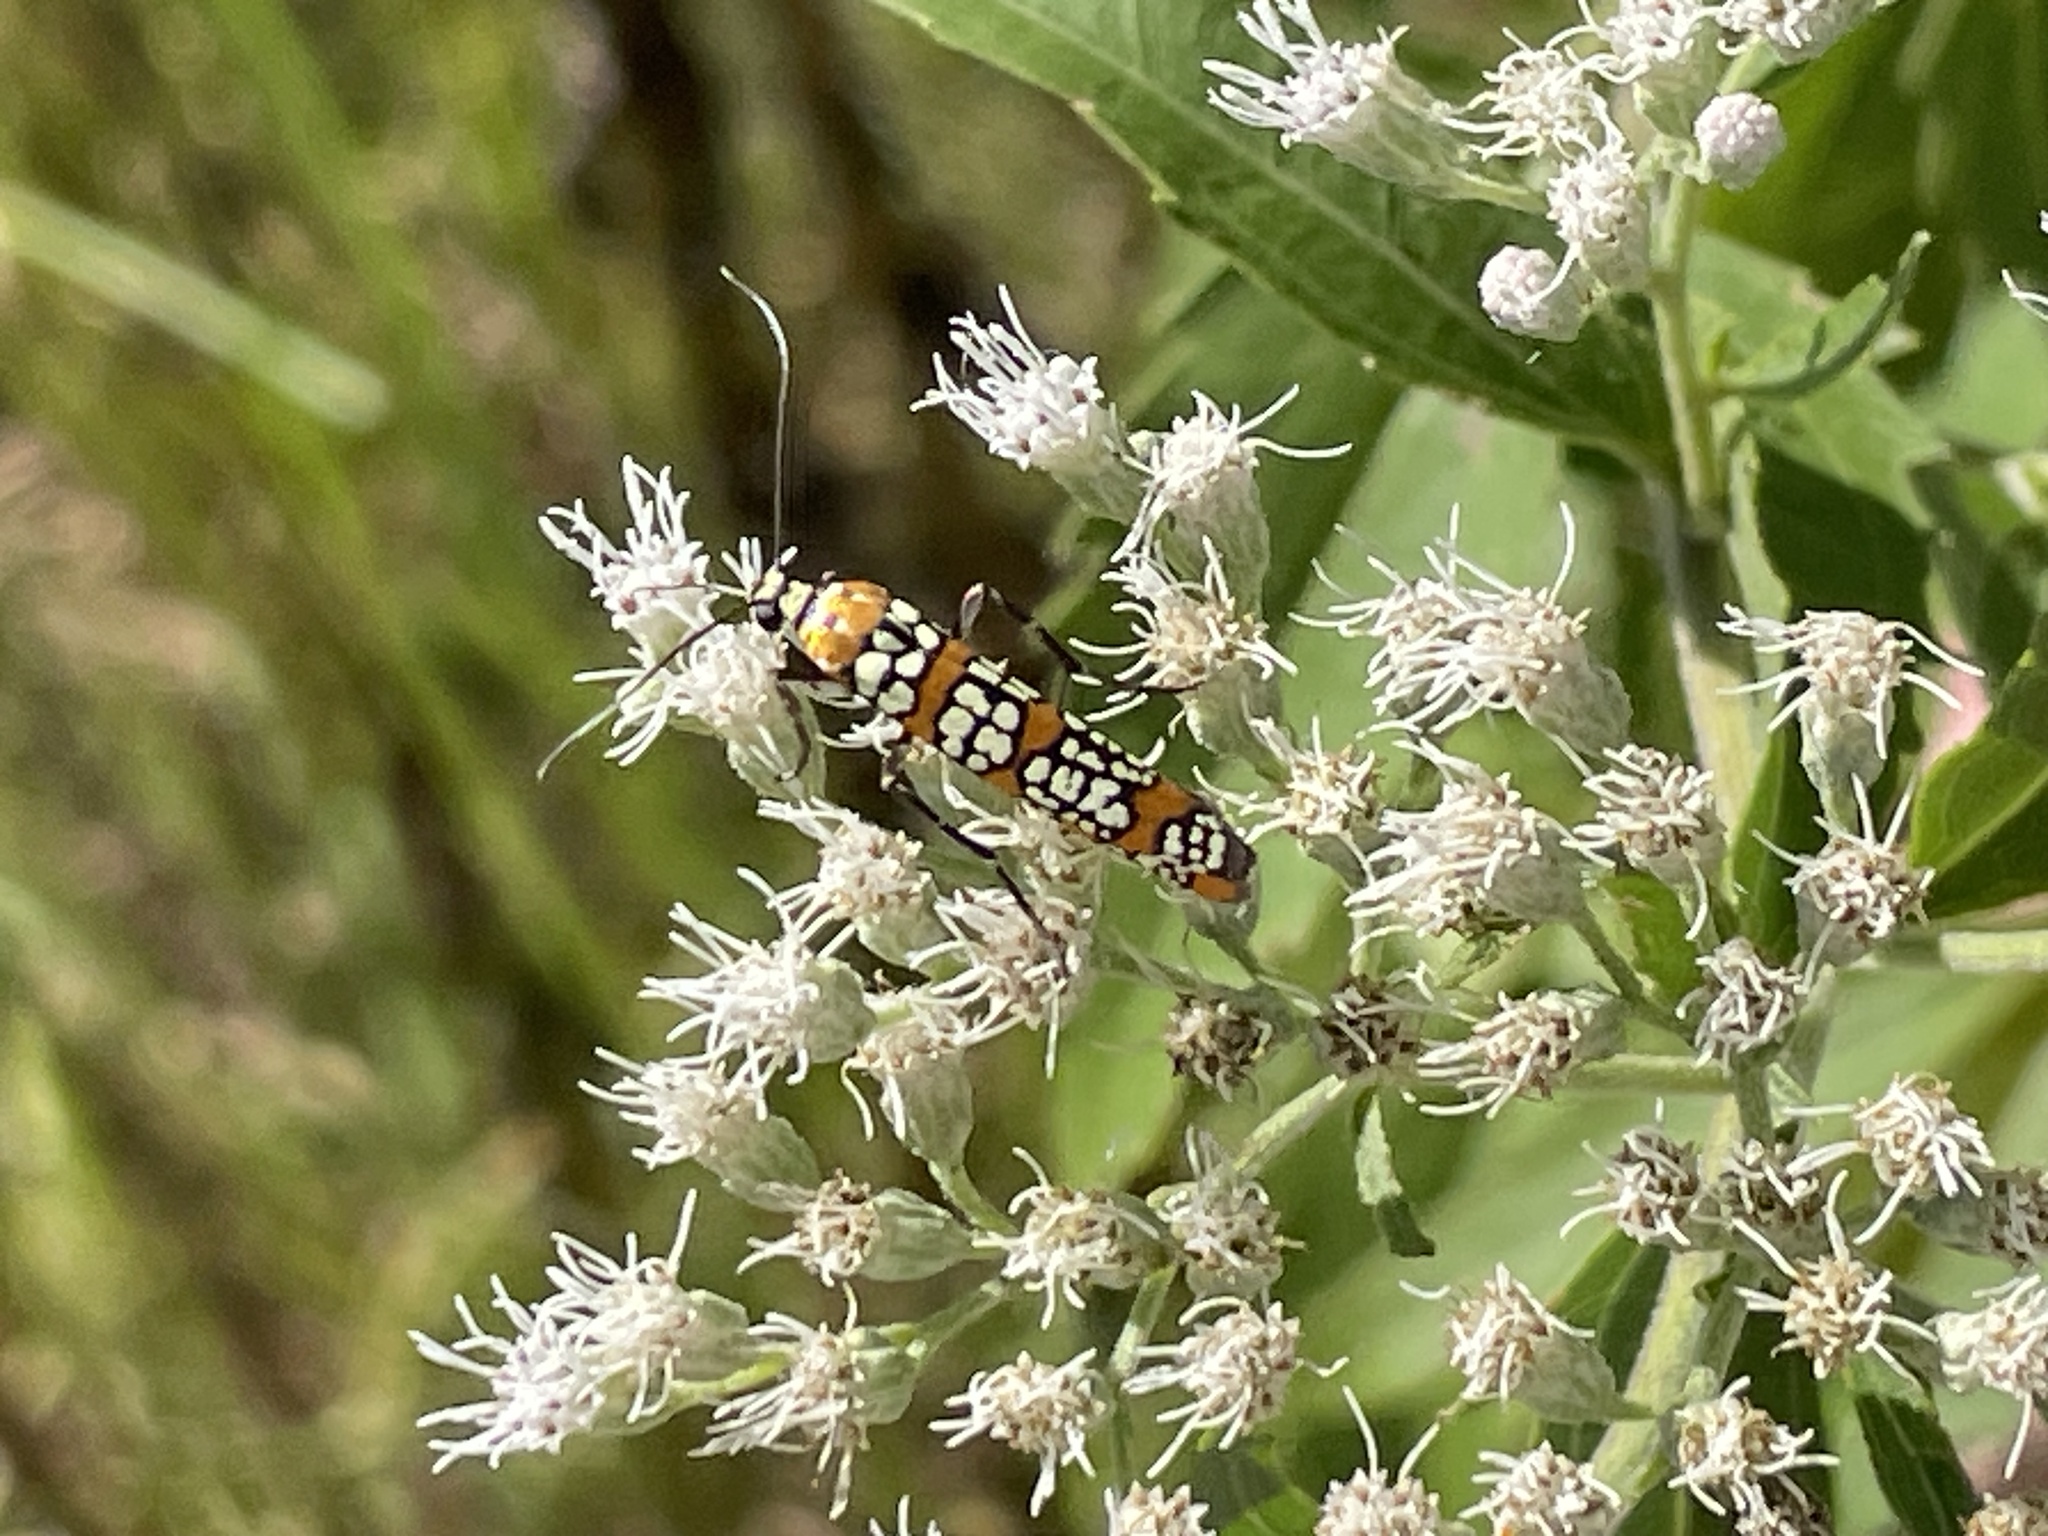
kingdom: Animalia
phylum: Arthropoda
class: Insecta
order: Lepidoptera
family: Attevidae
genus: Atteva
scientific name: Atteva punctella
